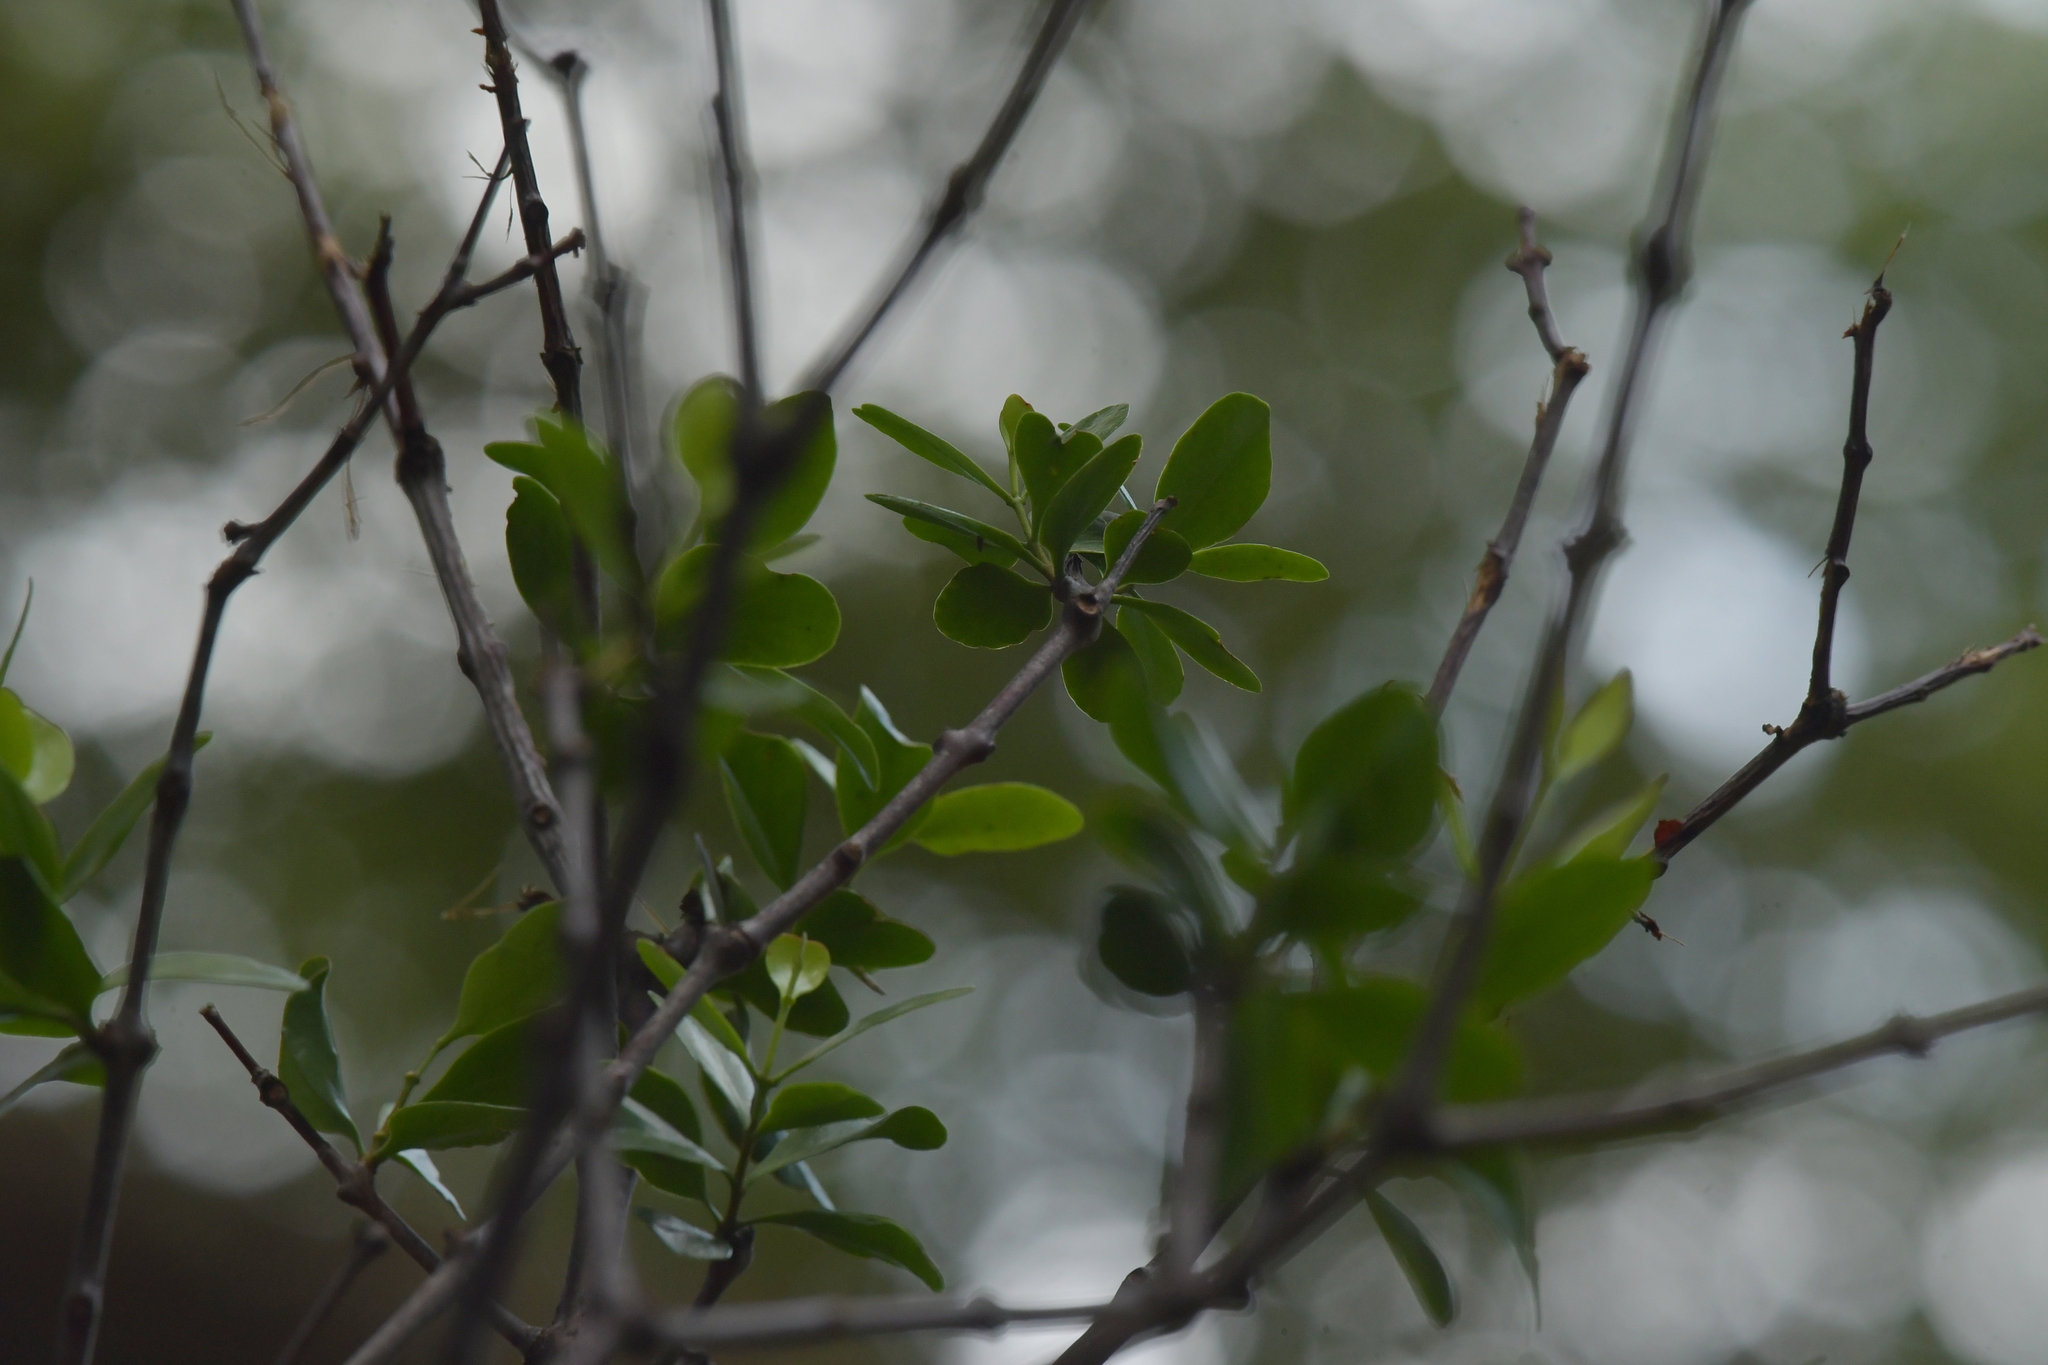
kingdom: Plantae
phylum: Tracheophyta
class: Magnoliopsida
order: Santalales
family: Loranthaceae
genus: Ileostylus
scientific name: Ileostylus micranthus
